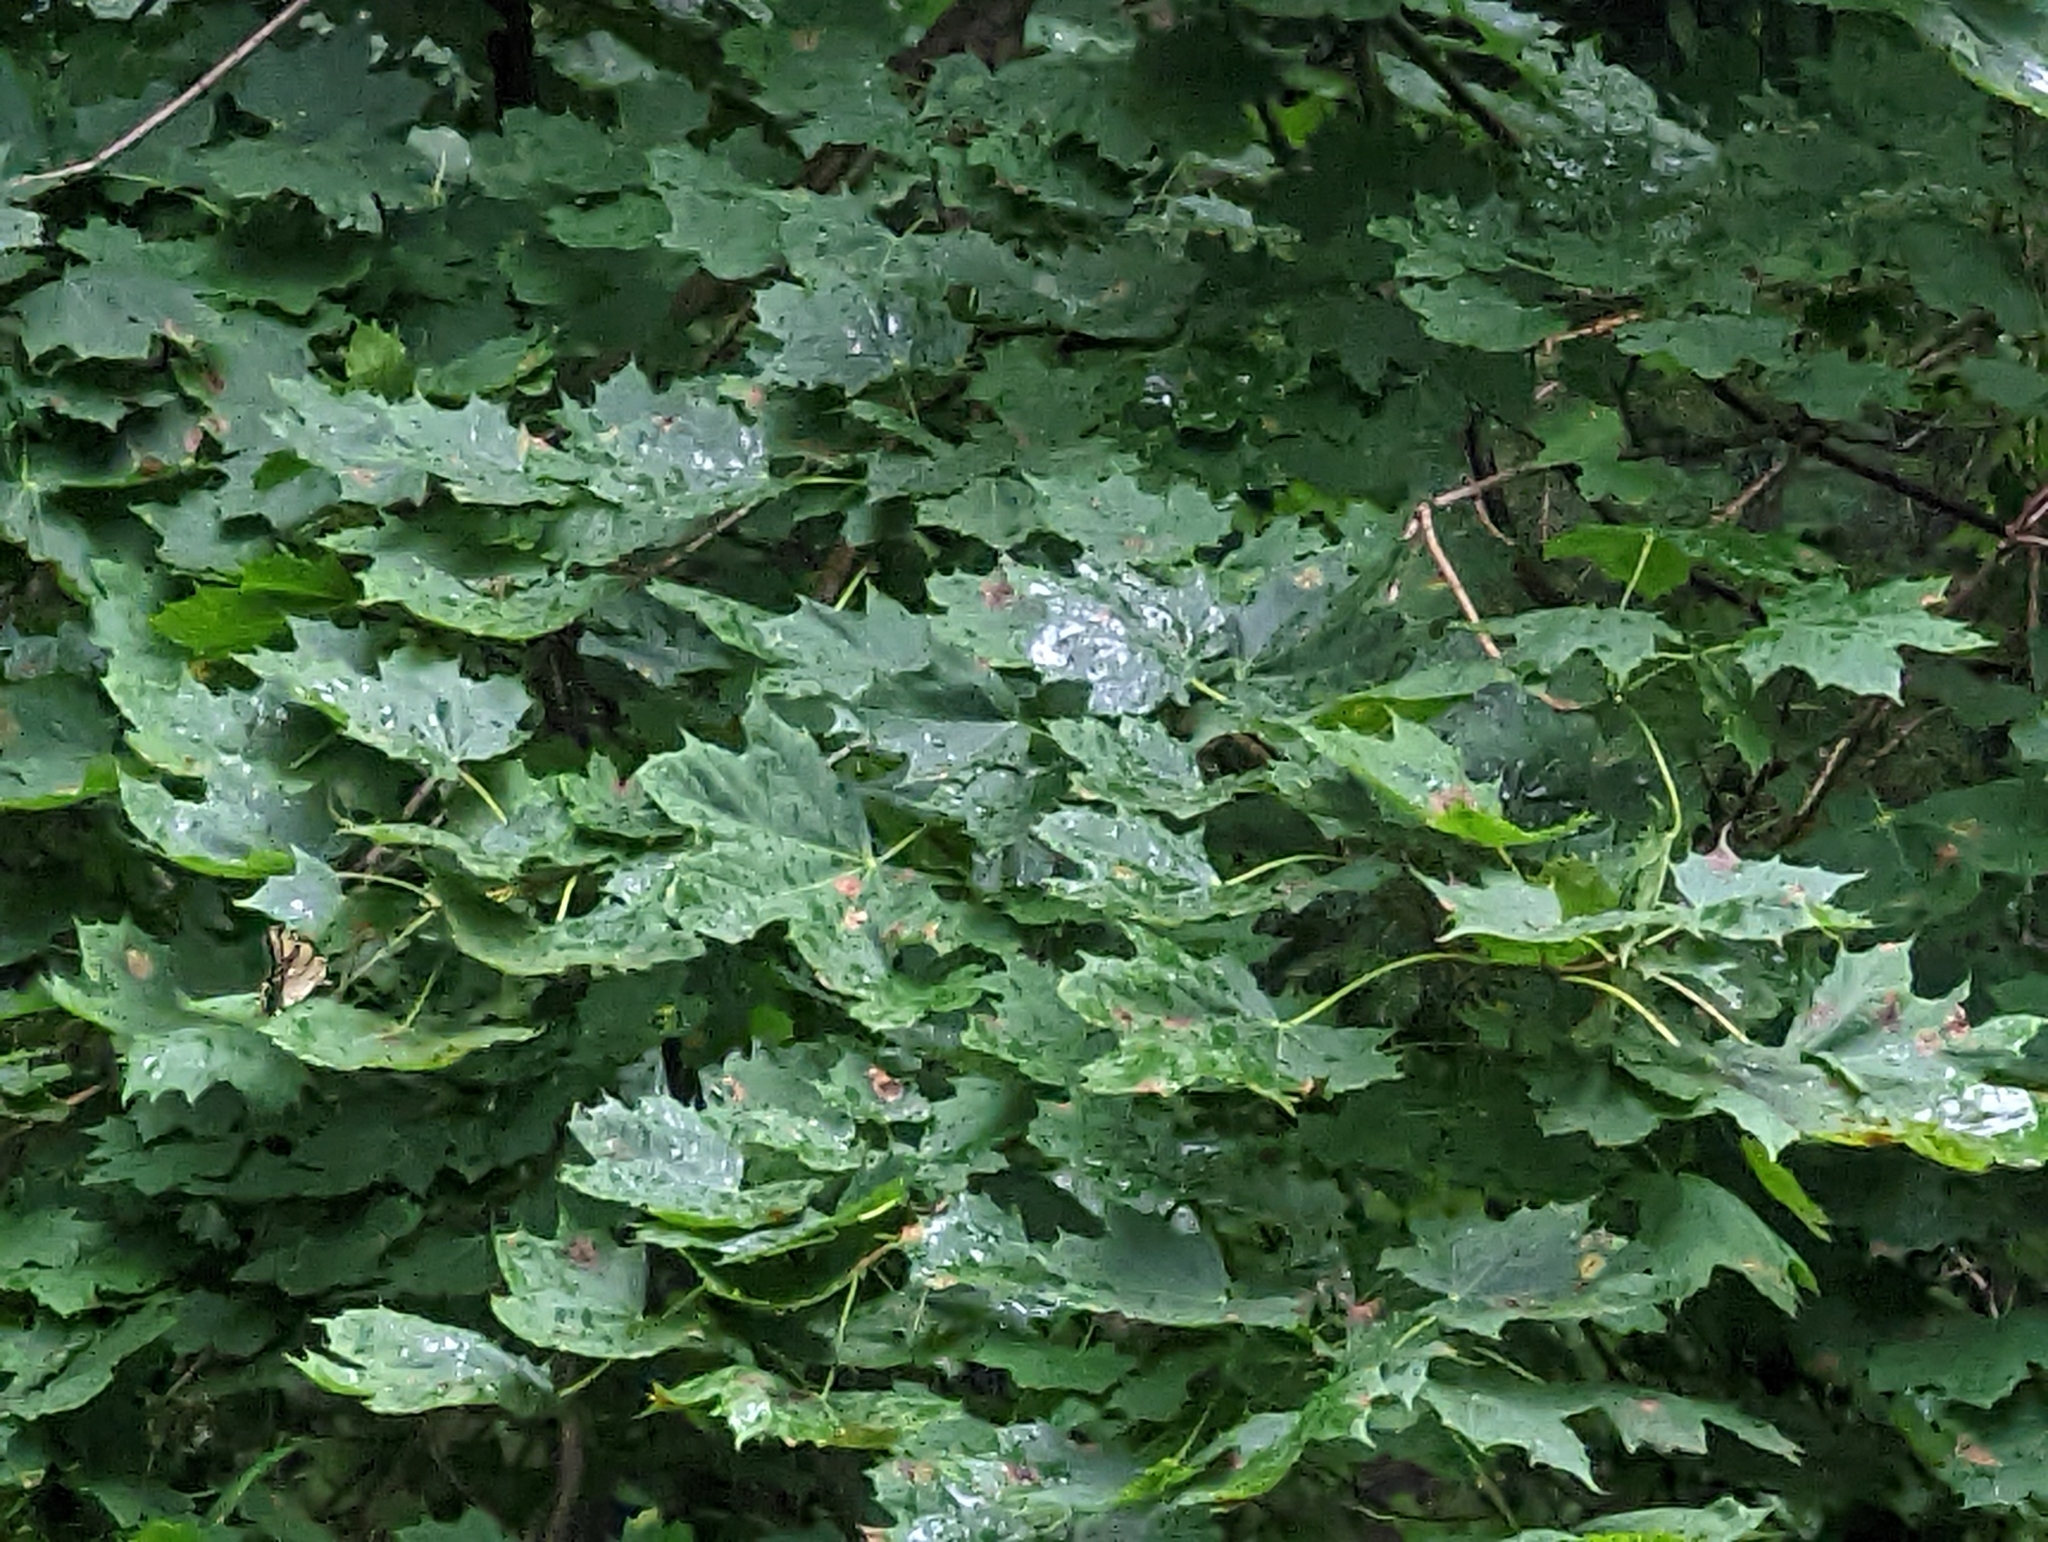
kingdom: Animalia
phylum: Arthropoda
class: Insecta
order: Lepidoptera
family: Papilionidae
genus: Papilio
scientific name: Papilio glaucus
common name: Tiger swallowtail
